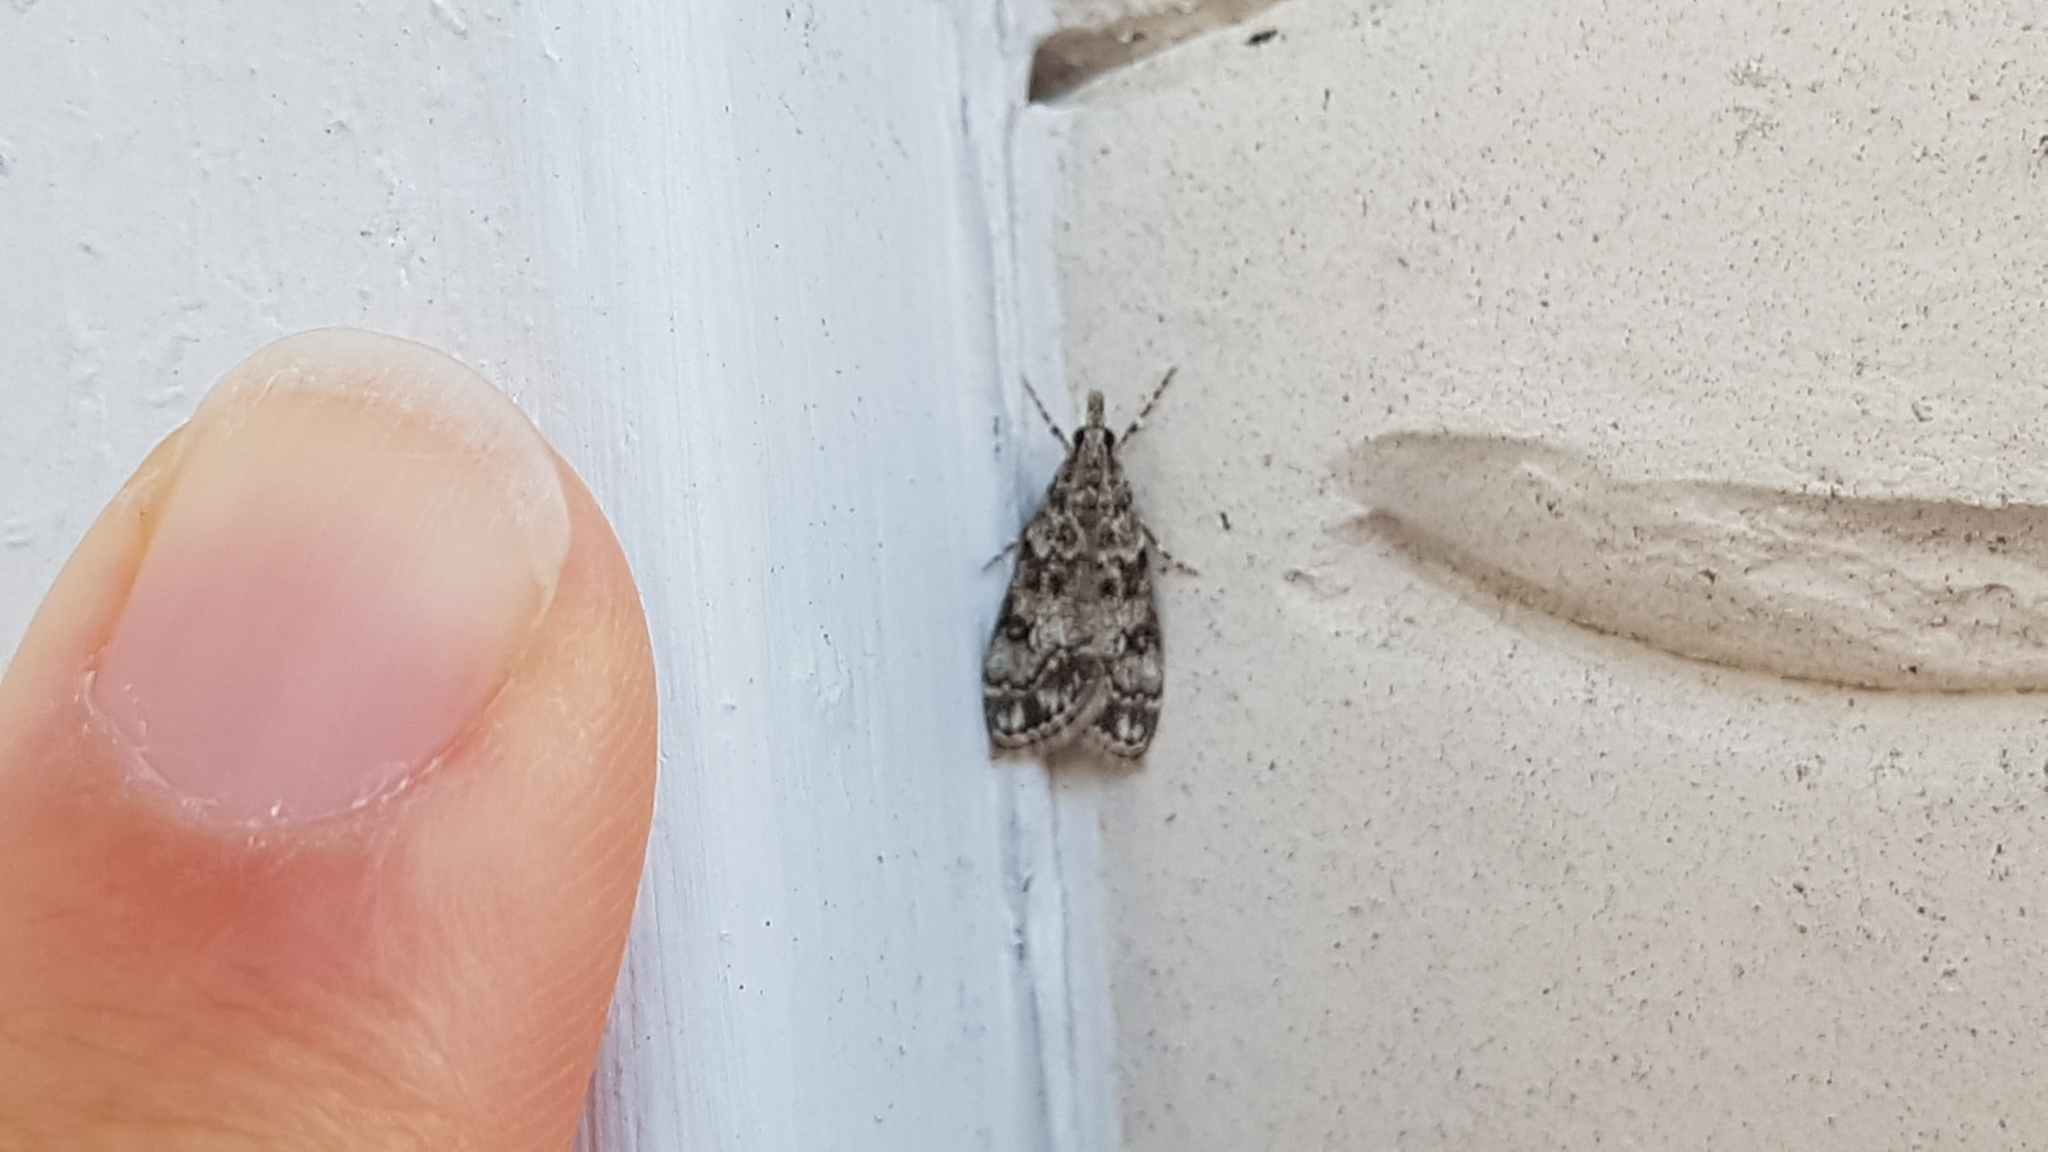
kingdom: Animalia
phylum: Arthropoda
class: Insecta
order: Lepidoptera
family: Crambidae
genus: Eudonia
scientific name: Eudonia lacustrata
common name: Little grey
